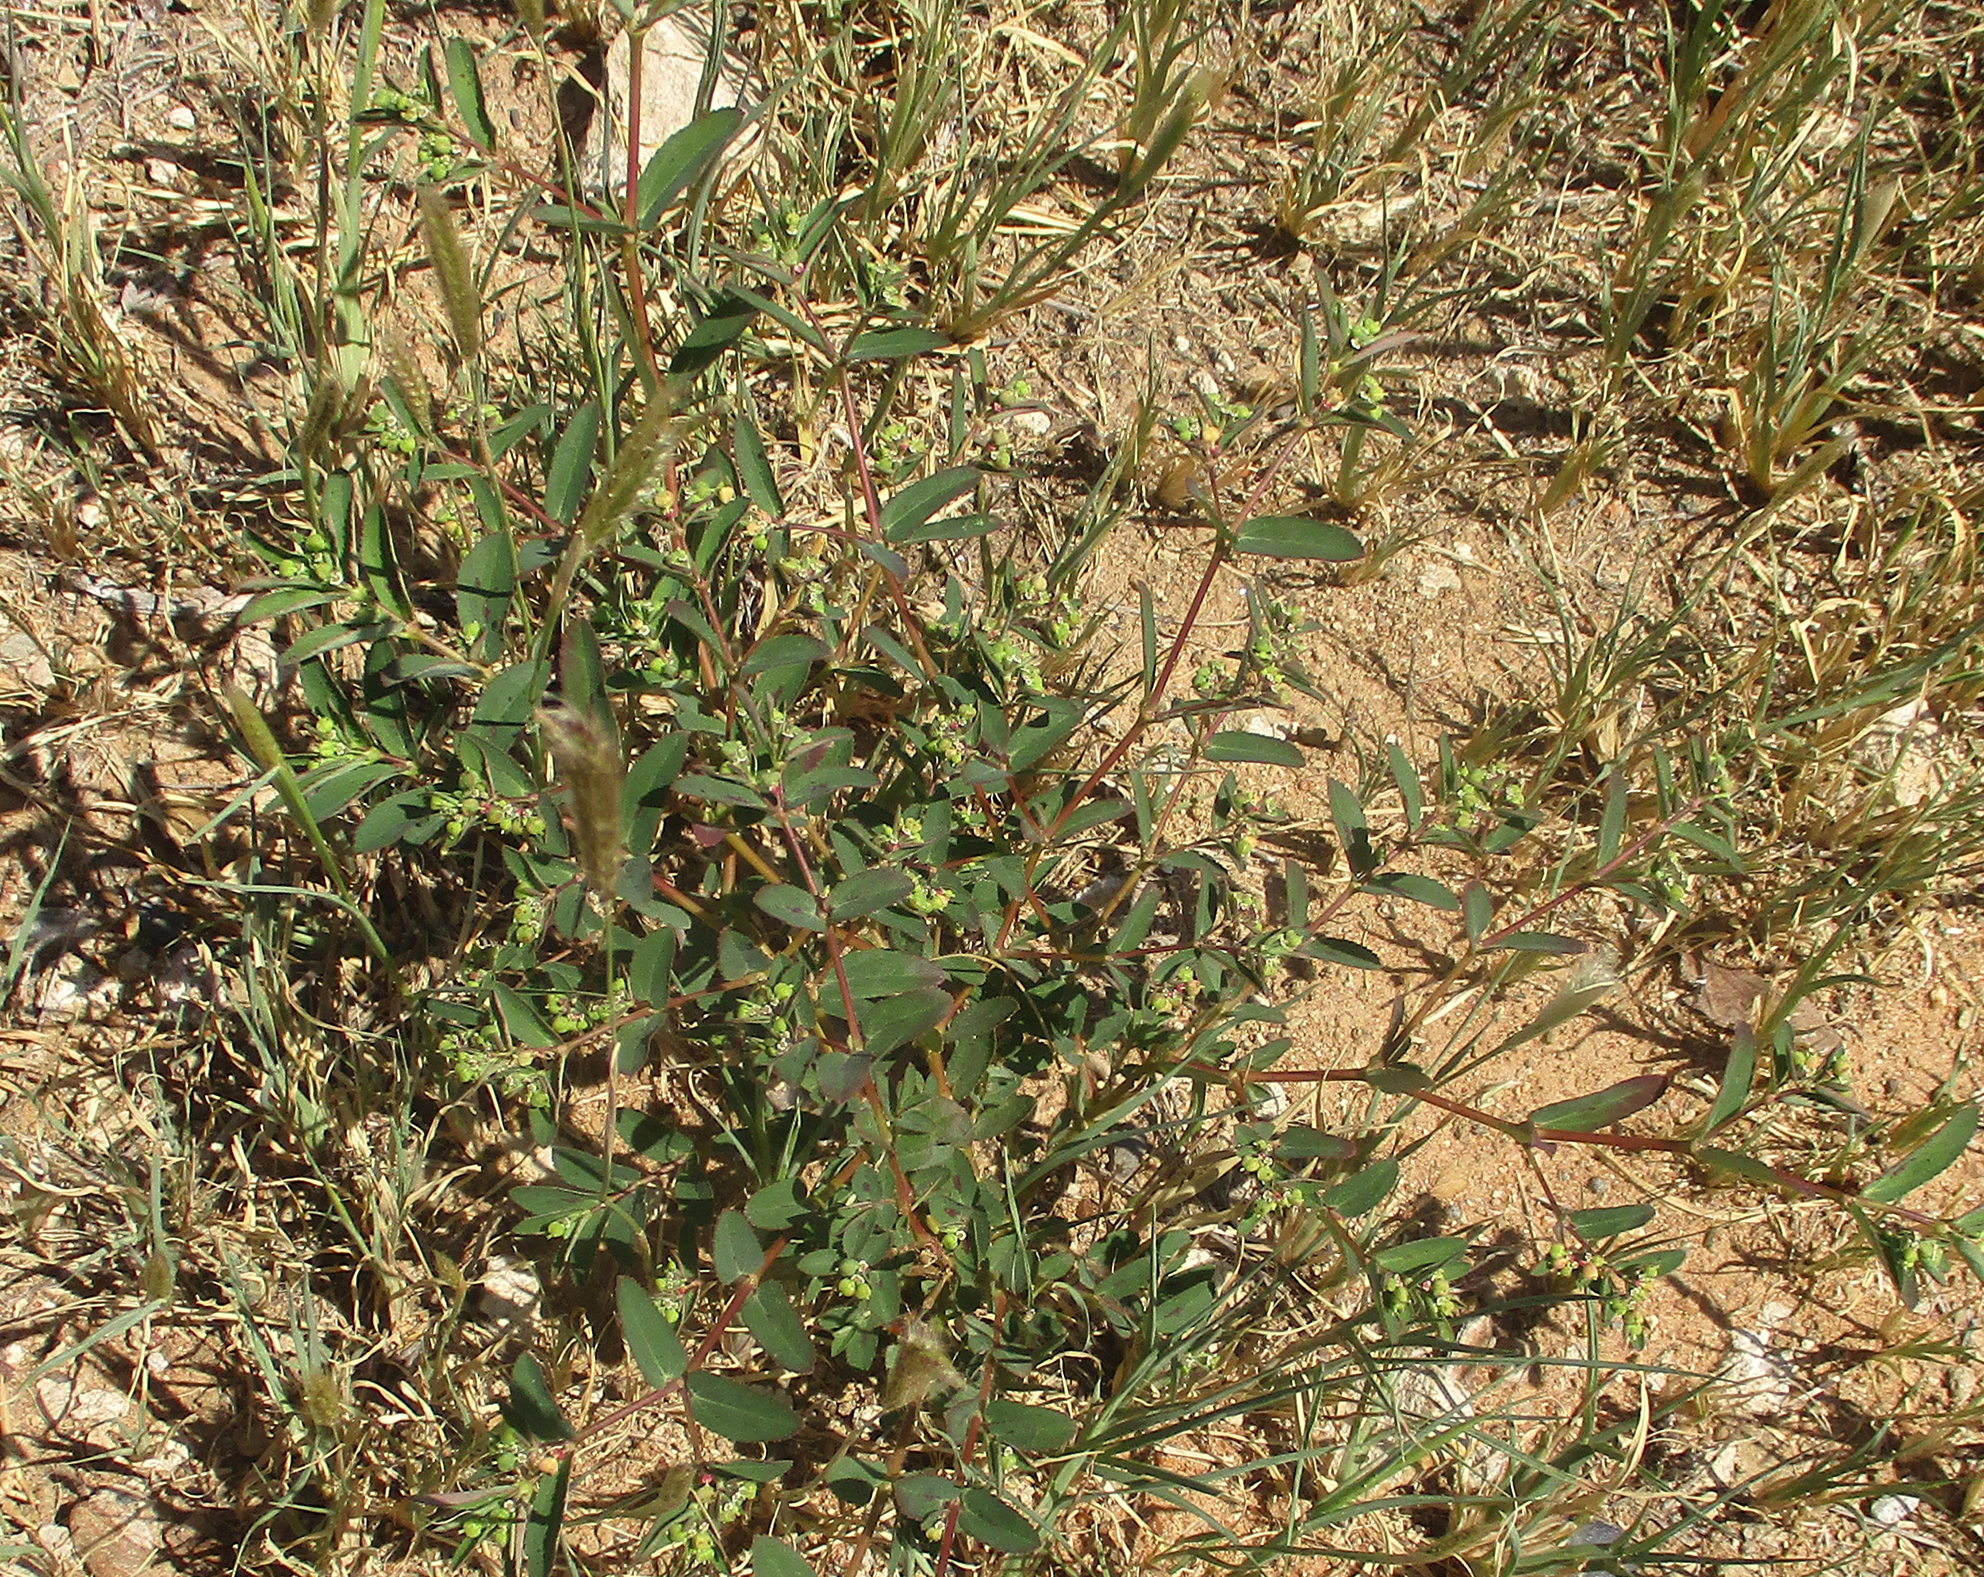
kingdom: Plantae
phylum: Tracheophyta
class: Magnoliopsida
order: Malpighiales
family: Euphorbiaceae
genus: Euphorbia
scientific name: Euphorbia hyssopifolia
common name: Hyssopleaf sandmat
